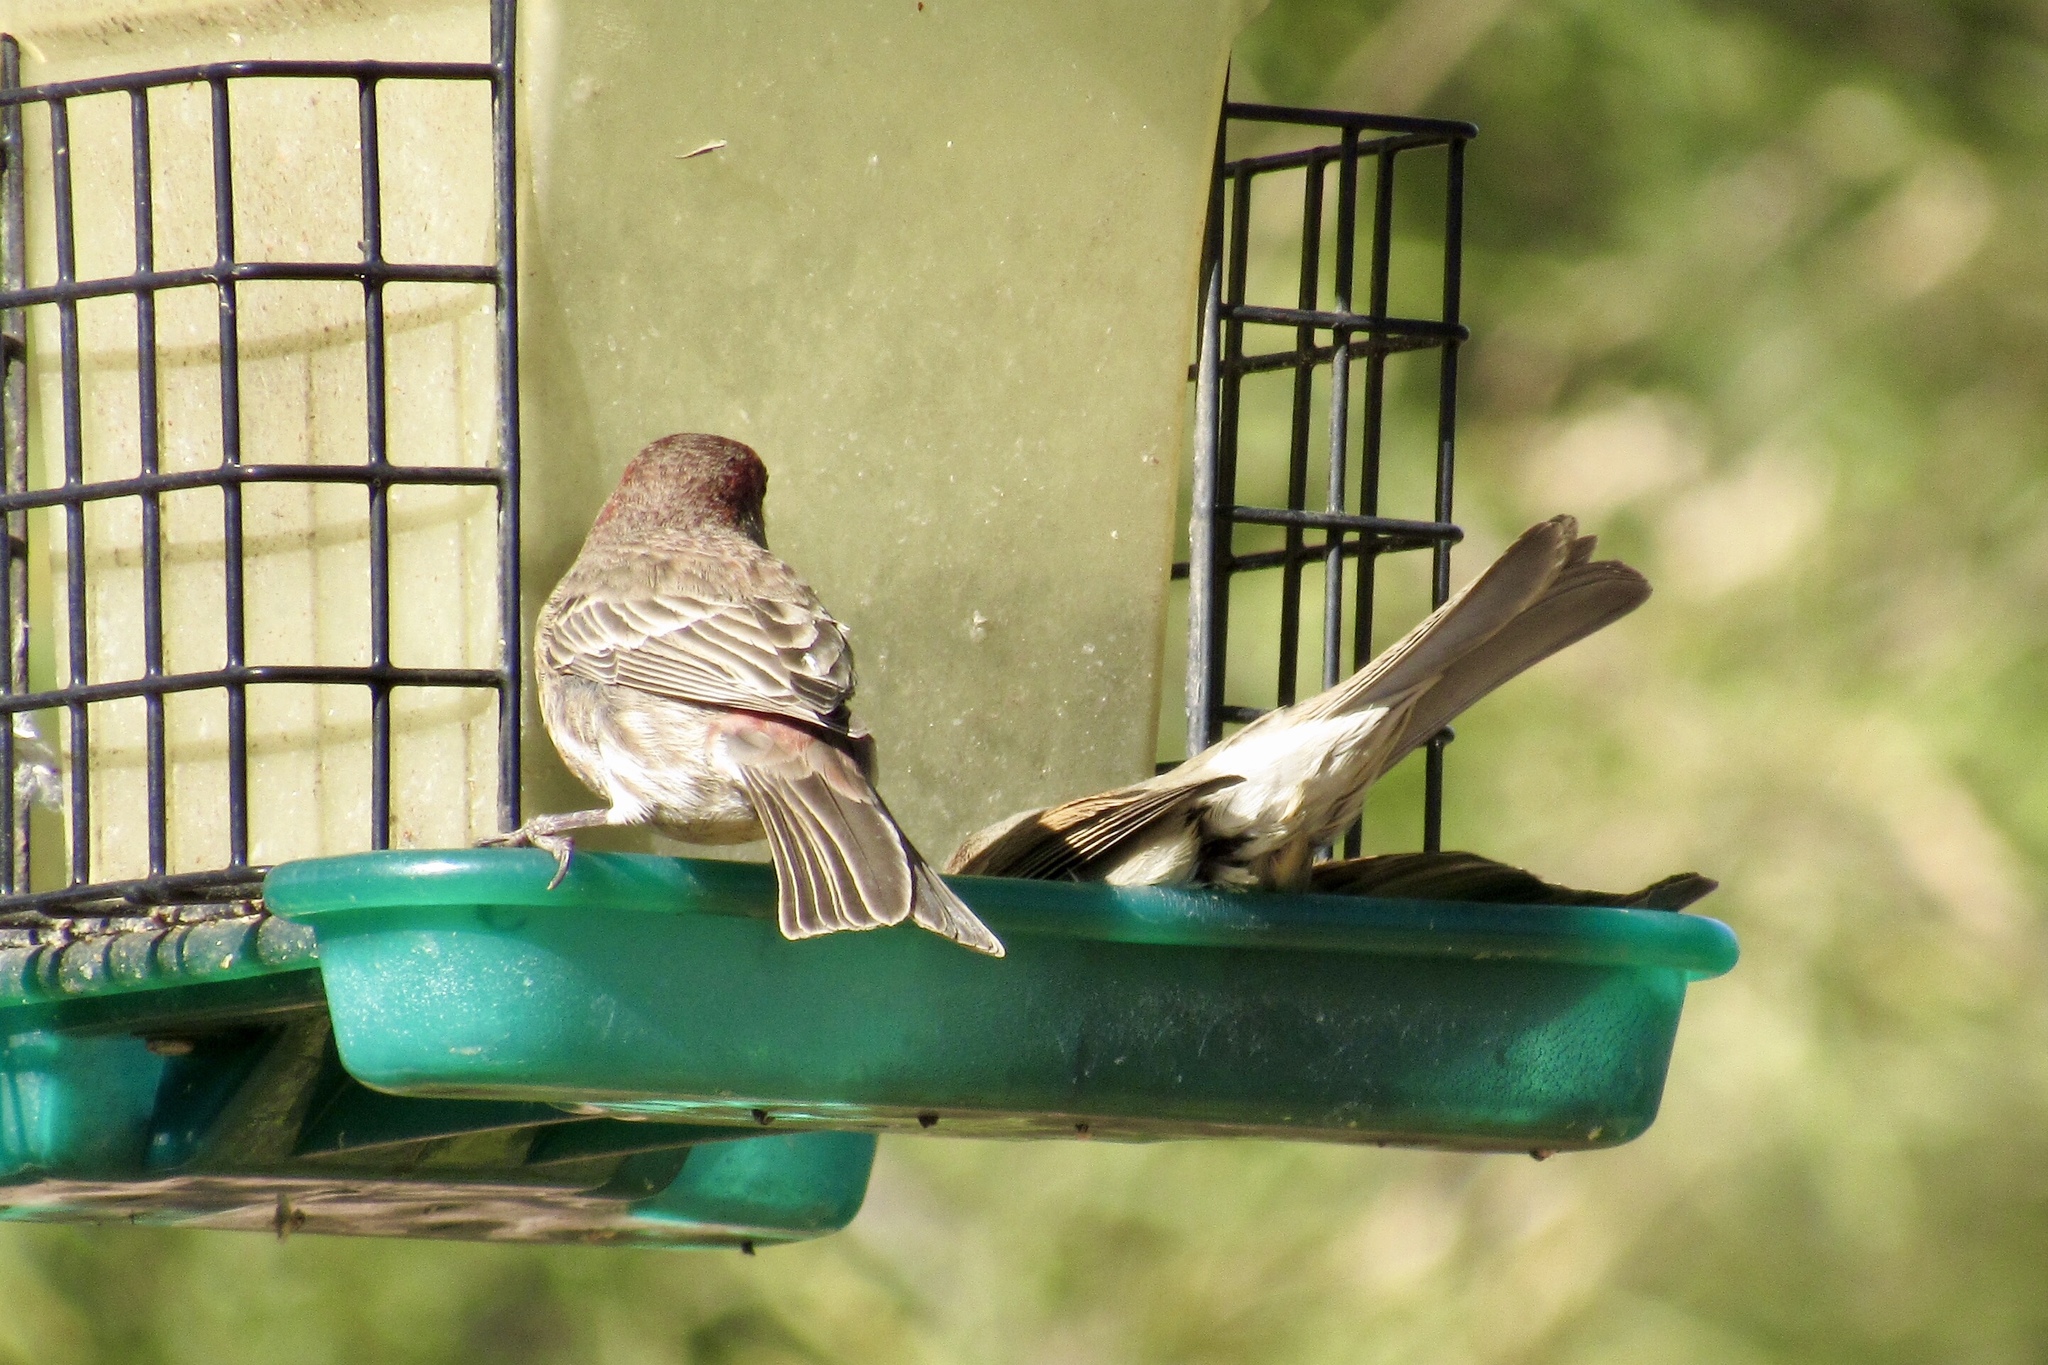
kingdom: Animalia
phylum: Chordata
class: Aves
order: Passeriformes
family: Fringillidae
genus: Haemorhous
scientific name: Haemorhous mexicanus
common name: House finch
